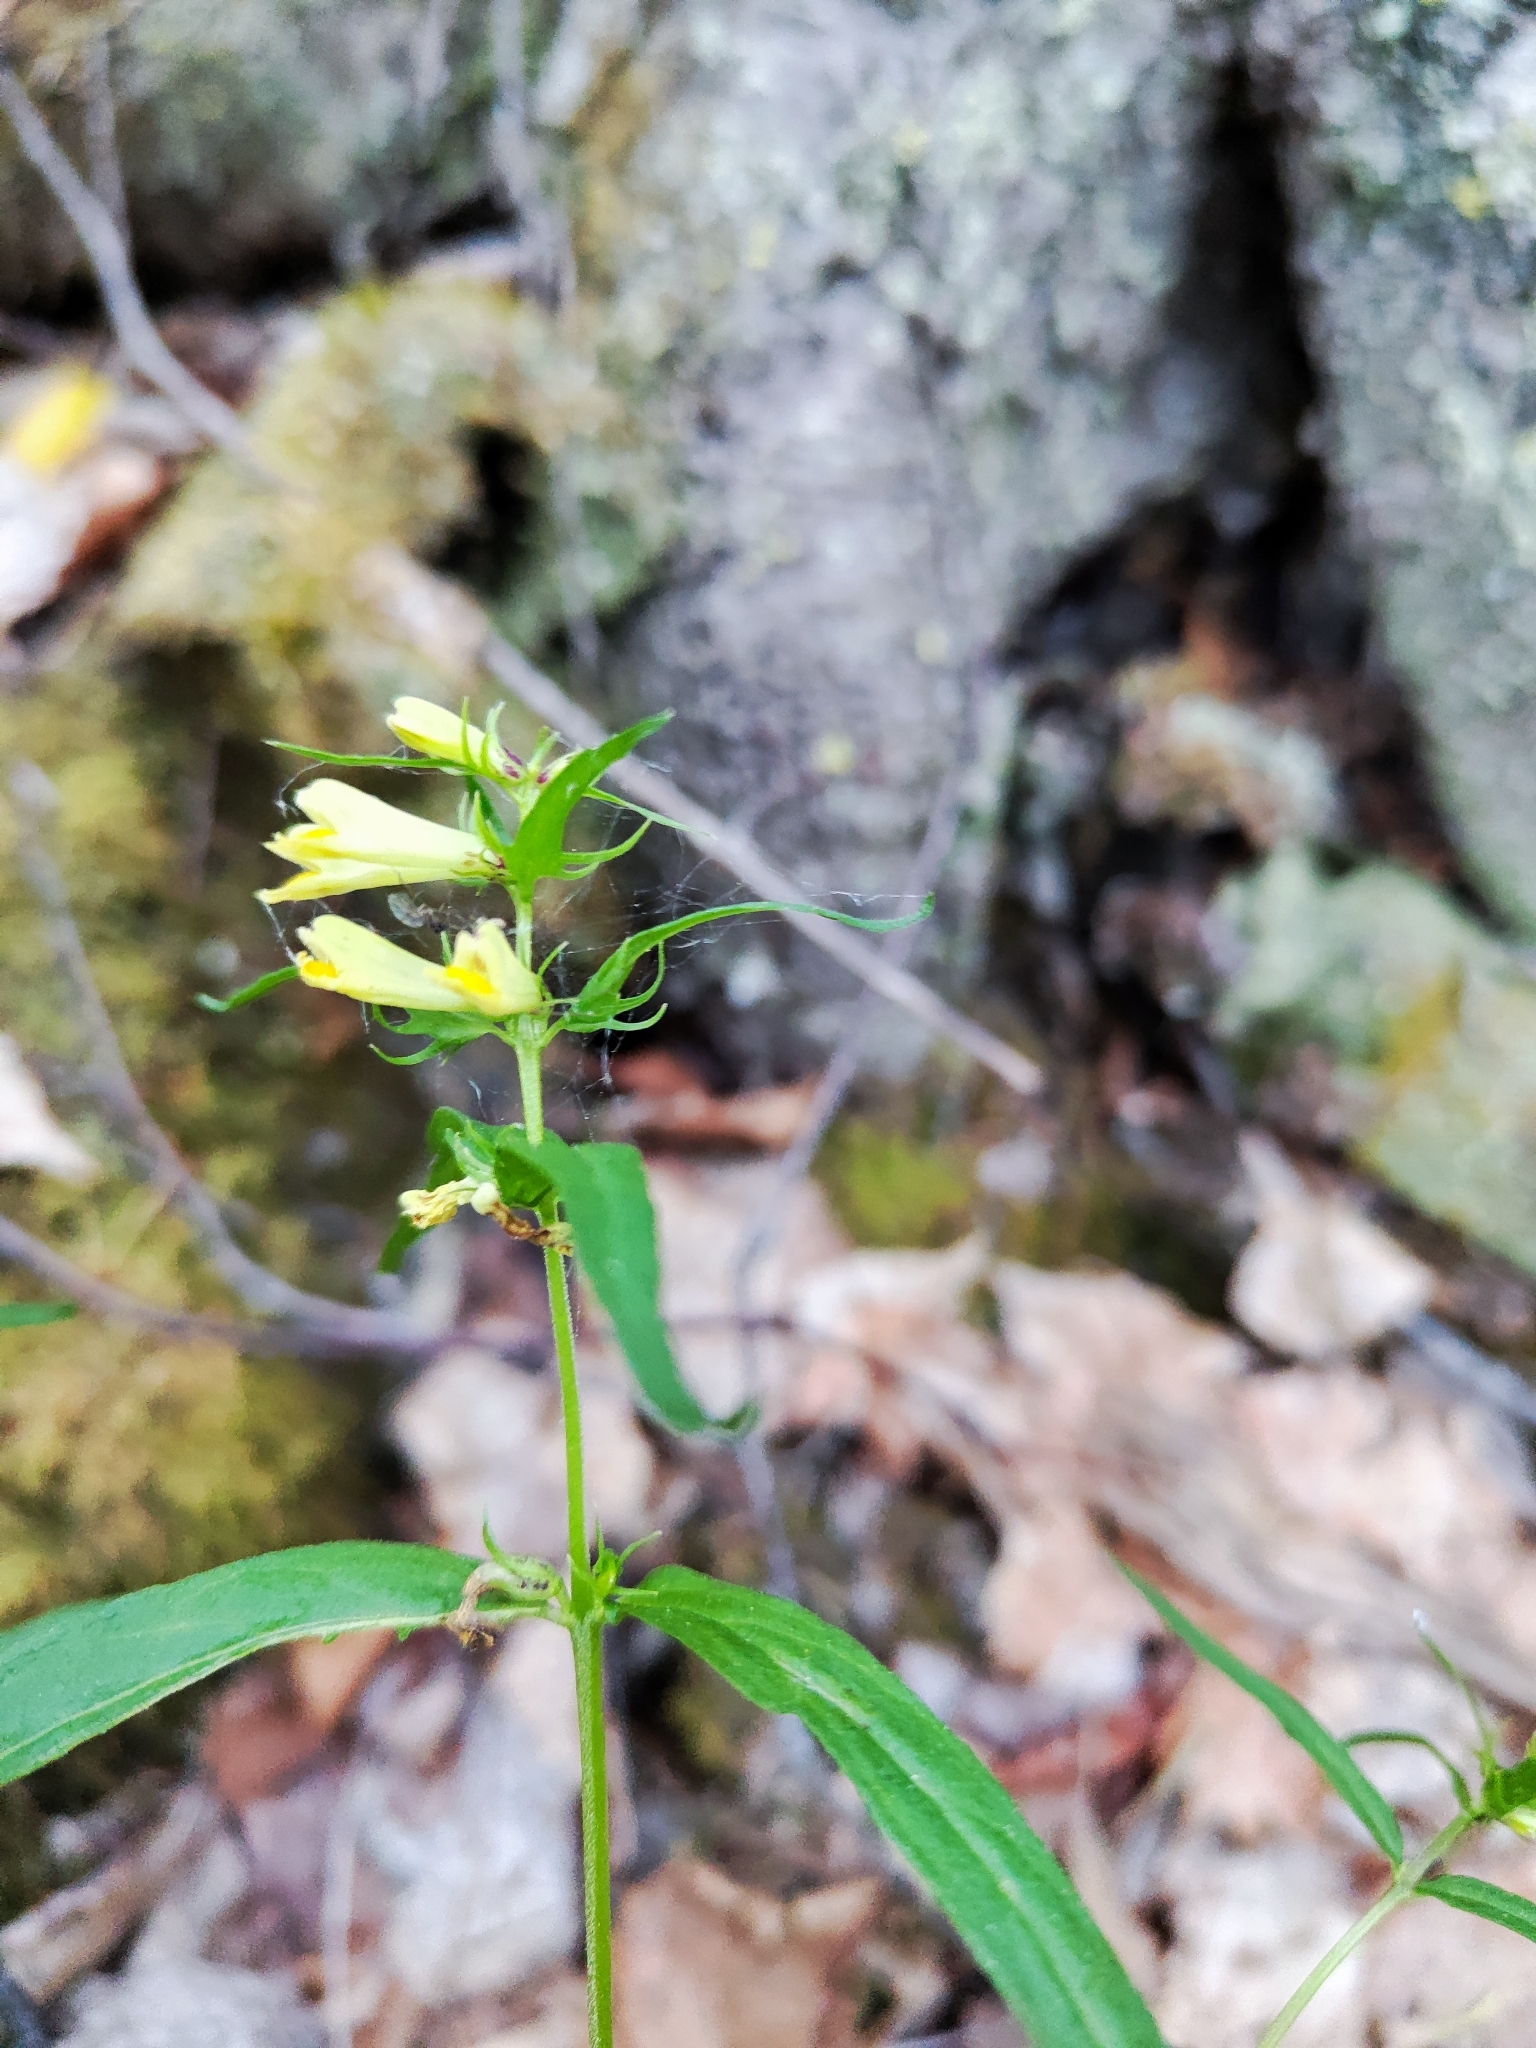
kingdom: Plantae
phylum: Tracheophyta
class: Magnoliopsida
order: Lamiales
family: Orobanchaceae
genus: Melampyrum
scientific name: Melampyrum pratense
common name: Common cow-wheat
